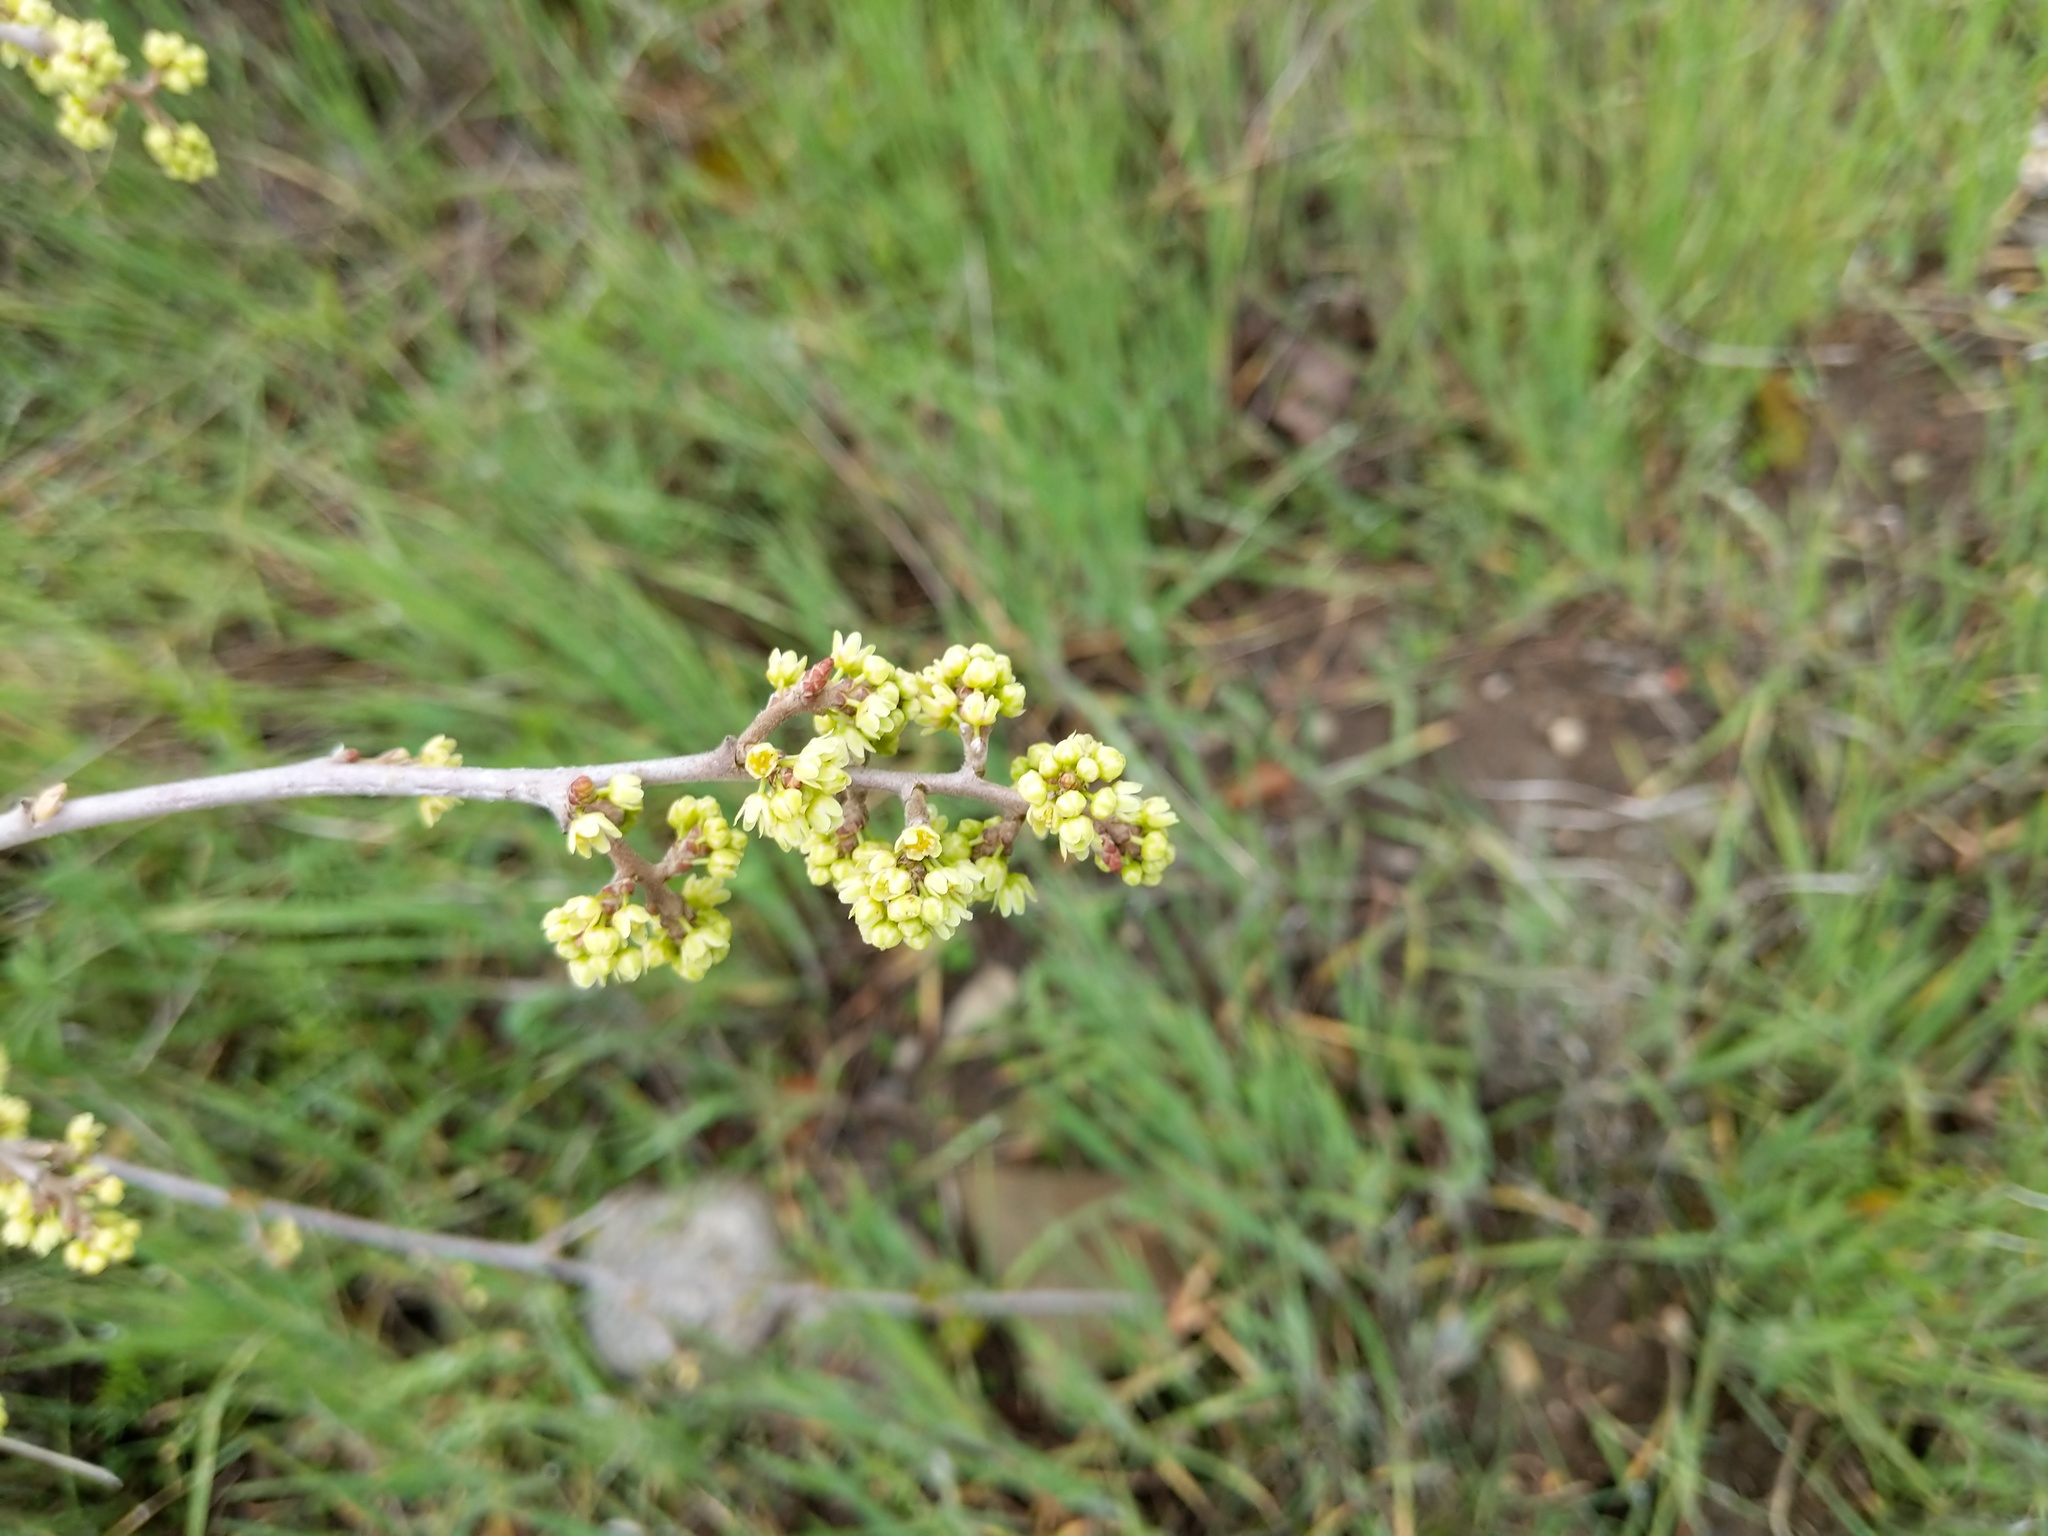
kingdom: Plantae
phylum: Tracheophyta
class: Magnoliopsida
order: Sapindales
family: Anacardiaceae
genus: Rhus
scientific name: Rhus aromatica
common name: Aromatic sumac
